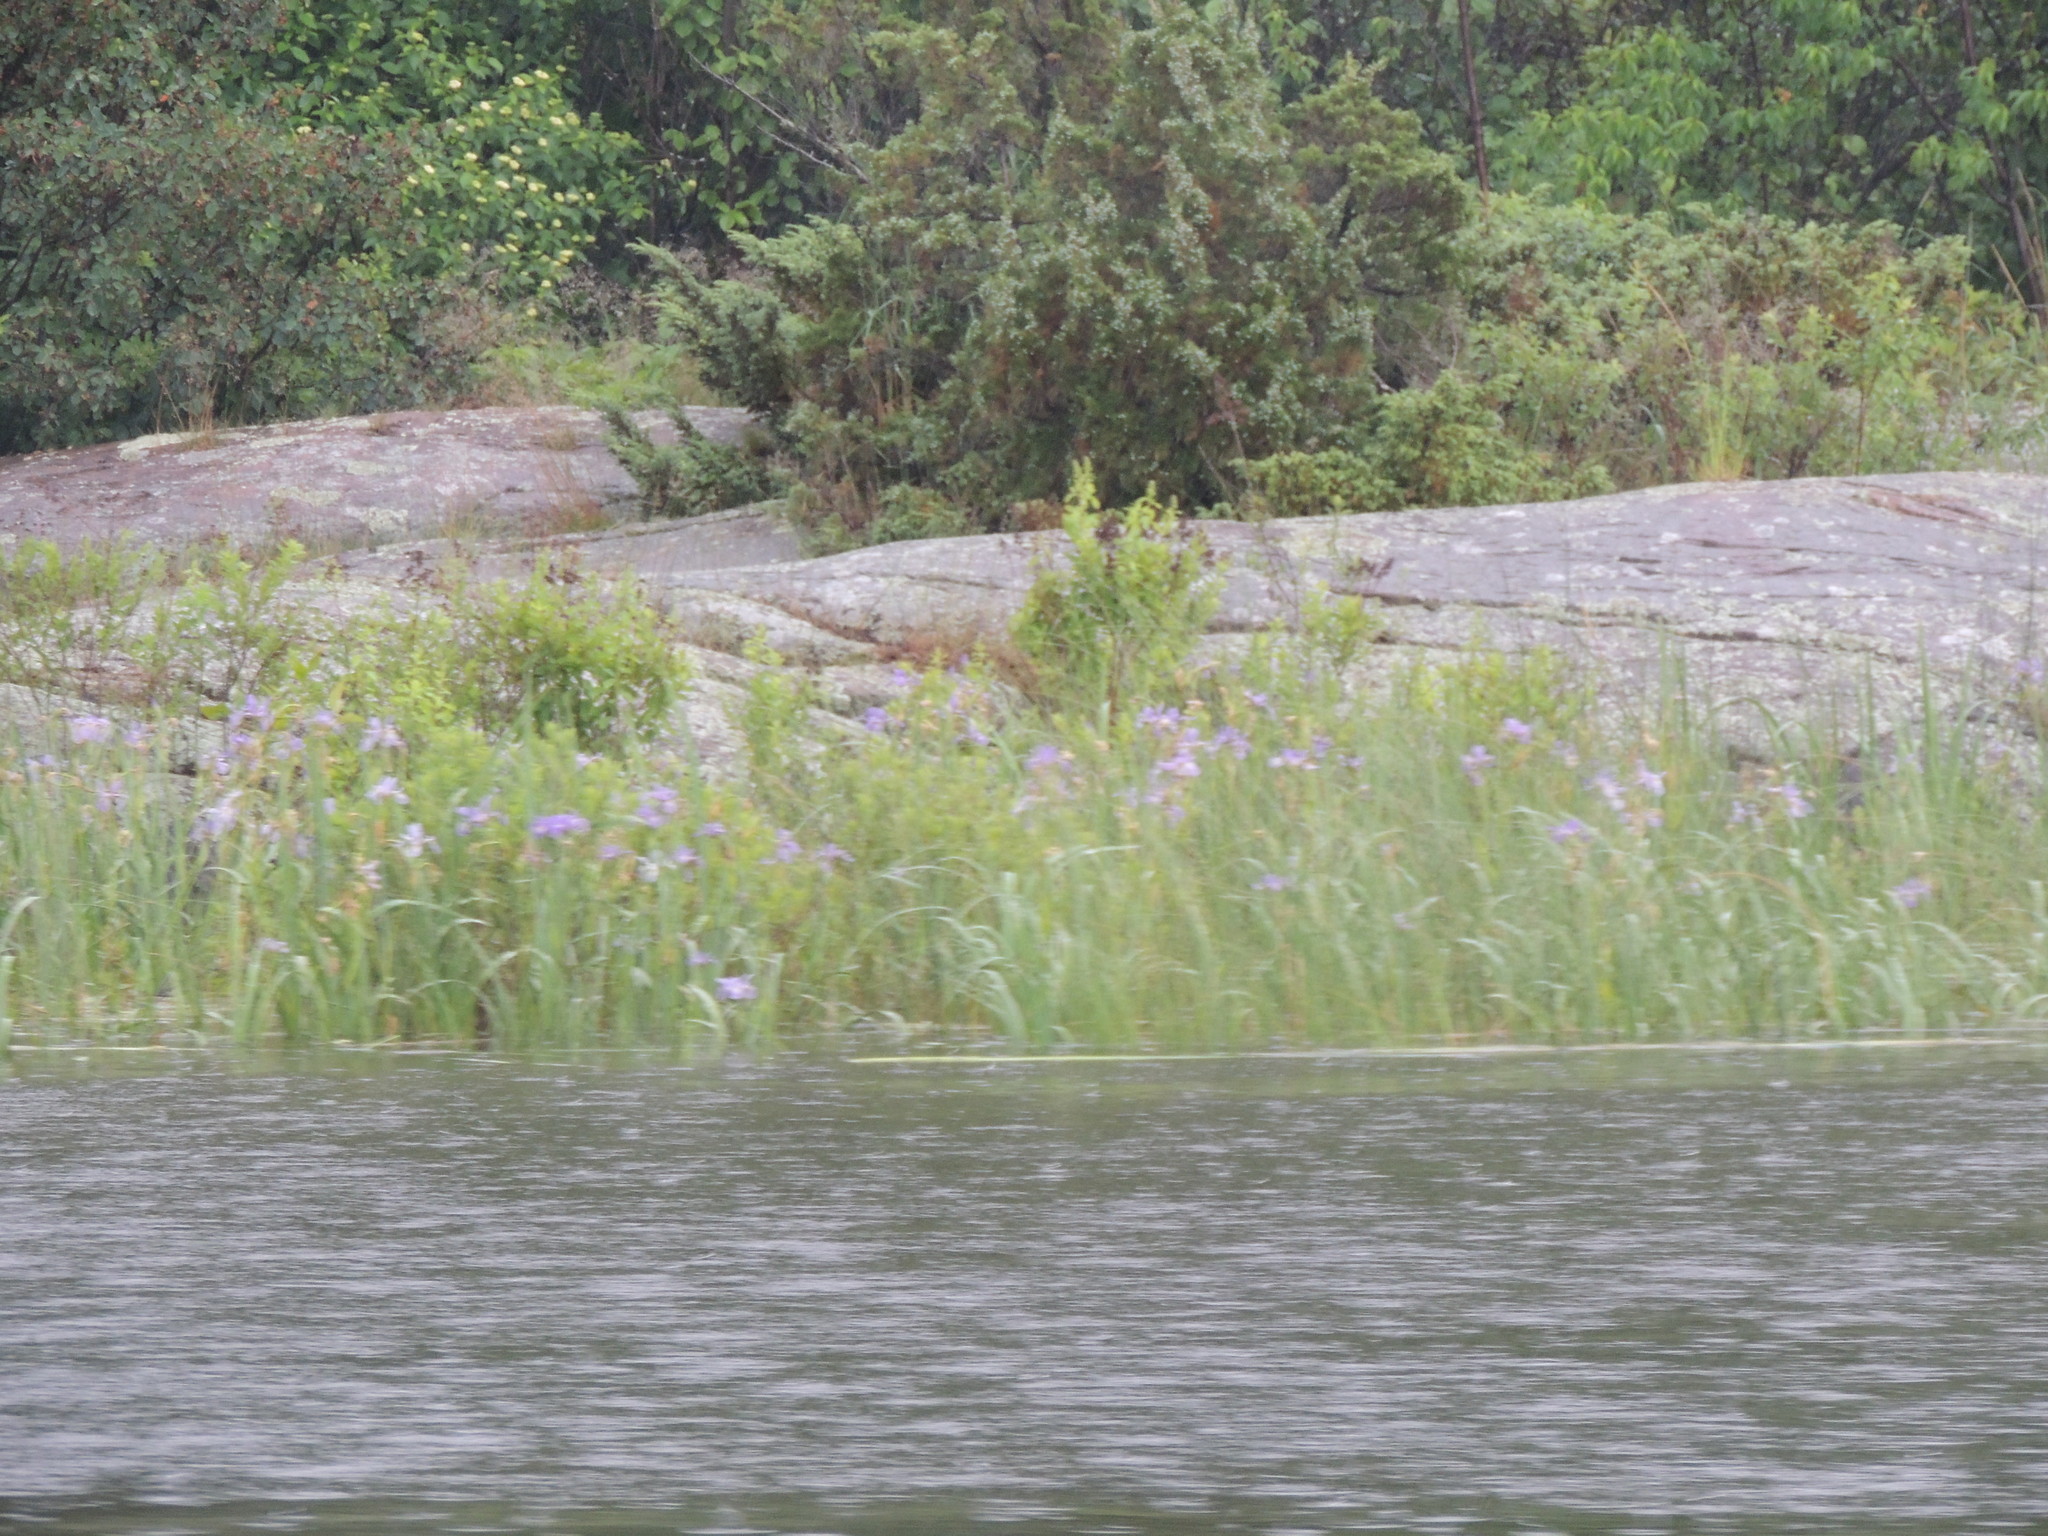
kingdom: Plantae
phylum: Tracheophyta
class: Liliopsida
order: Asparagales
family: Iridaceae
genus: Iris
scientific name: Iris versicolor
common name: Purple iris
